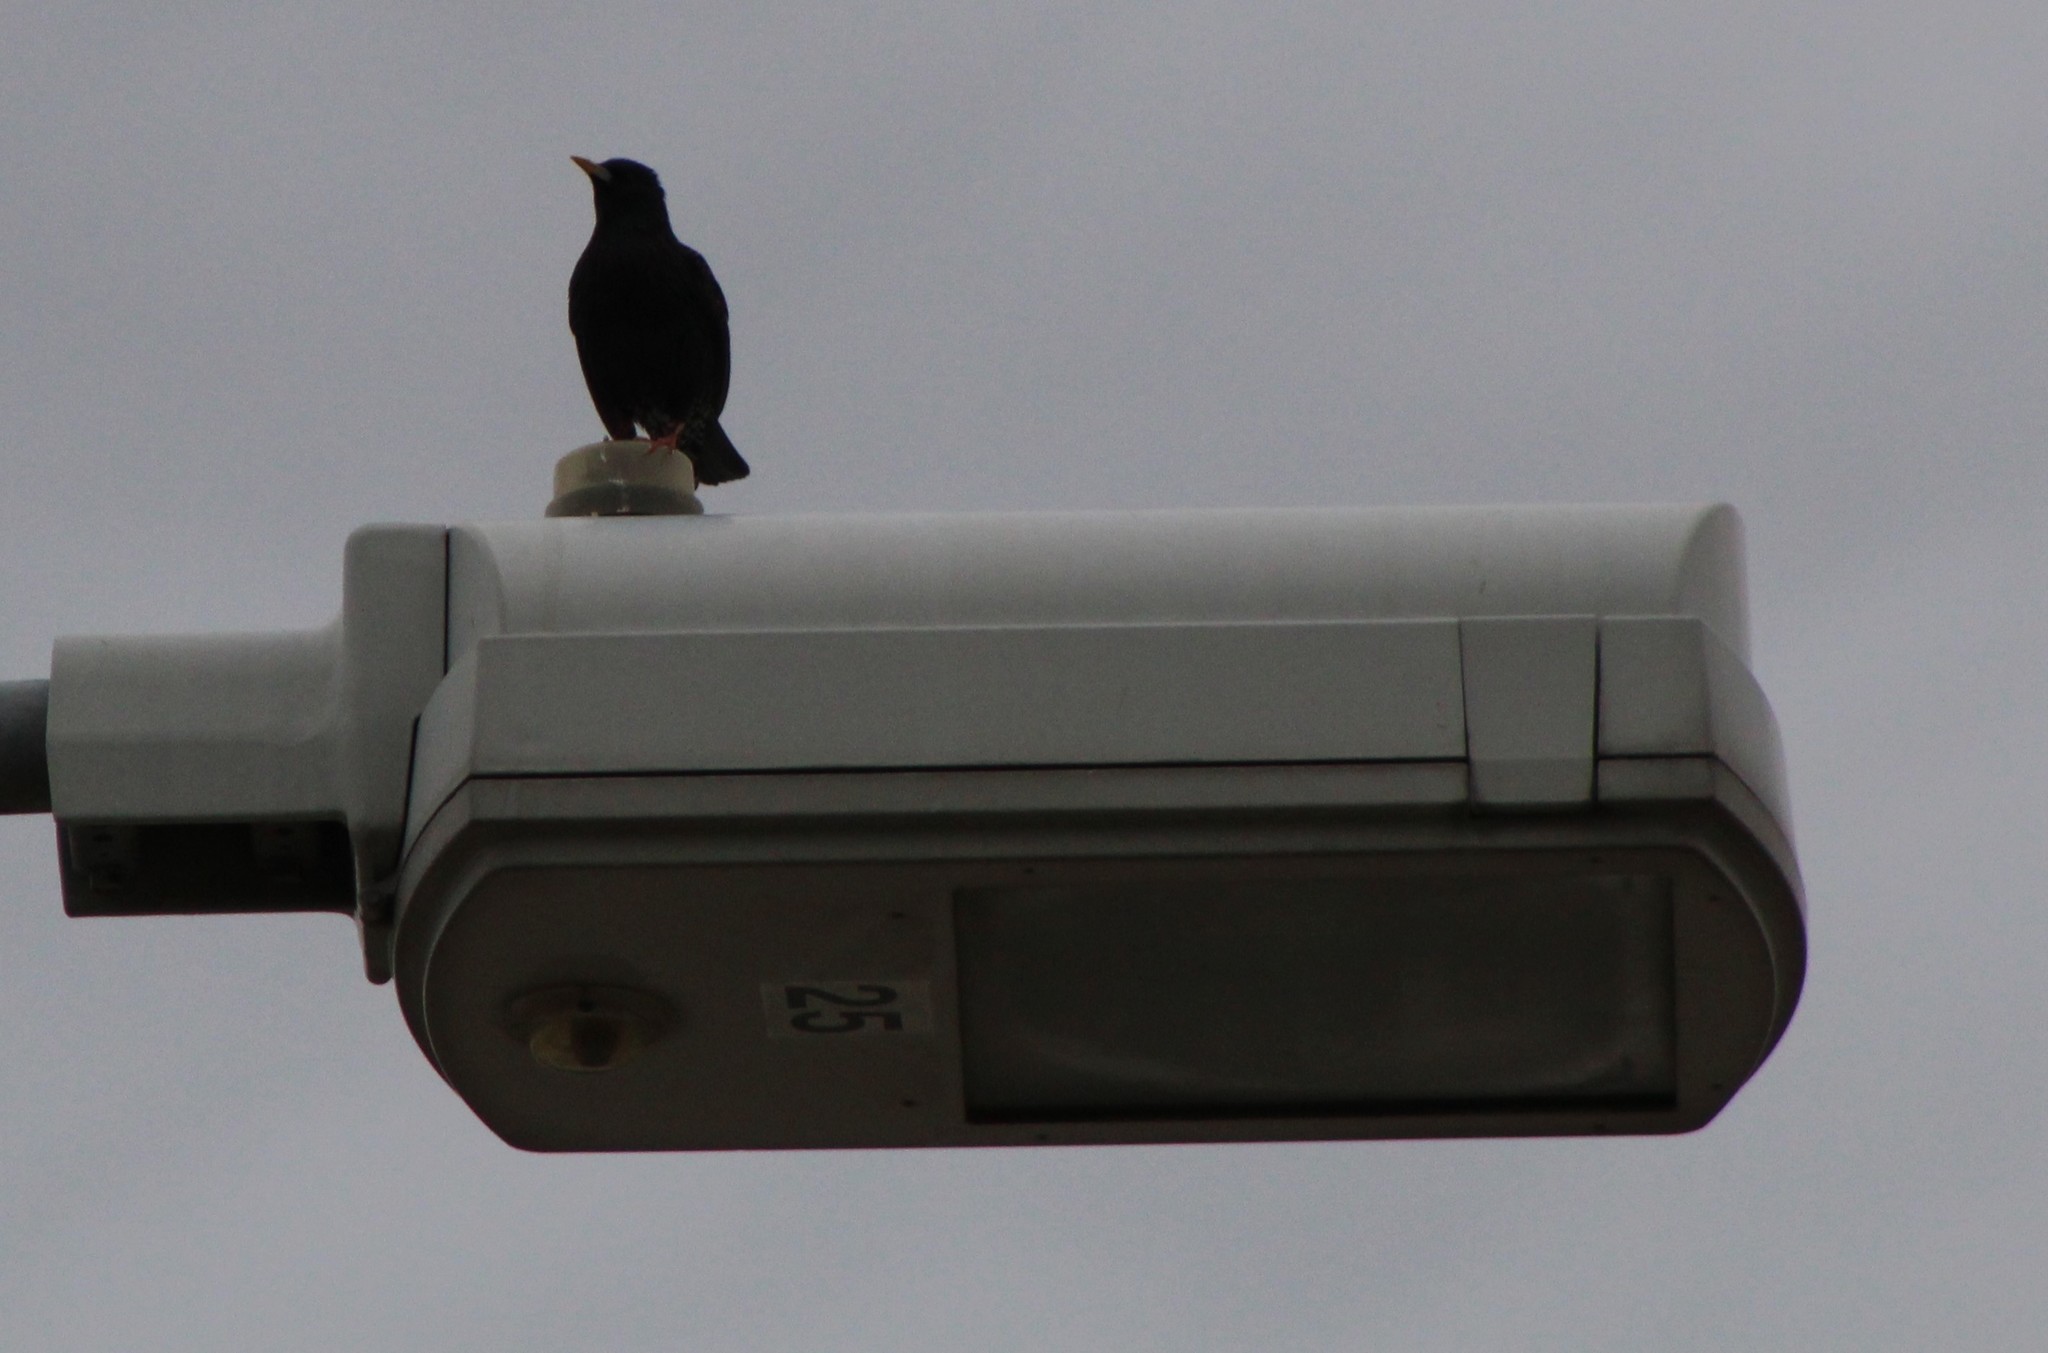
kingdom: Animalia
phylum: Chordata
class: Aves
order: Passeriformes
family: Sturnidae
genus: Sturnus
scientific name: Sturnus vulgaris
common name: Common starling
